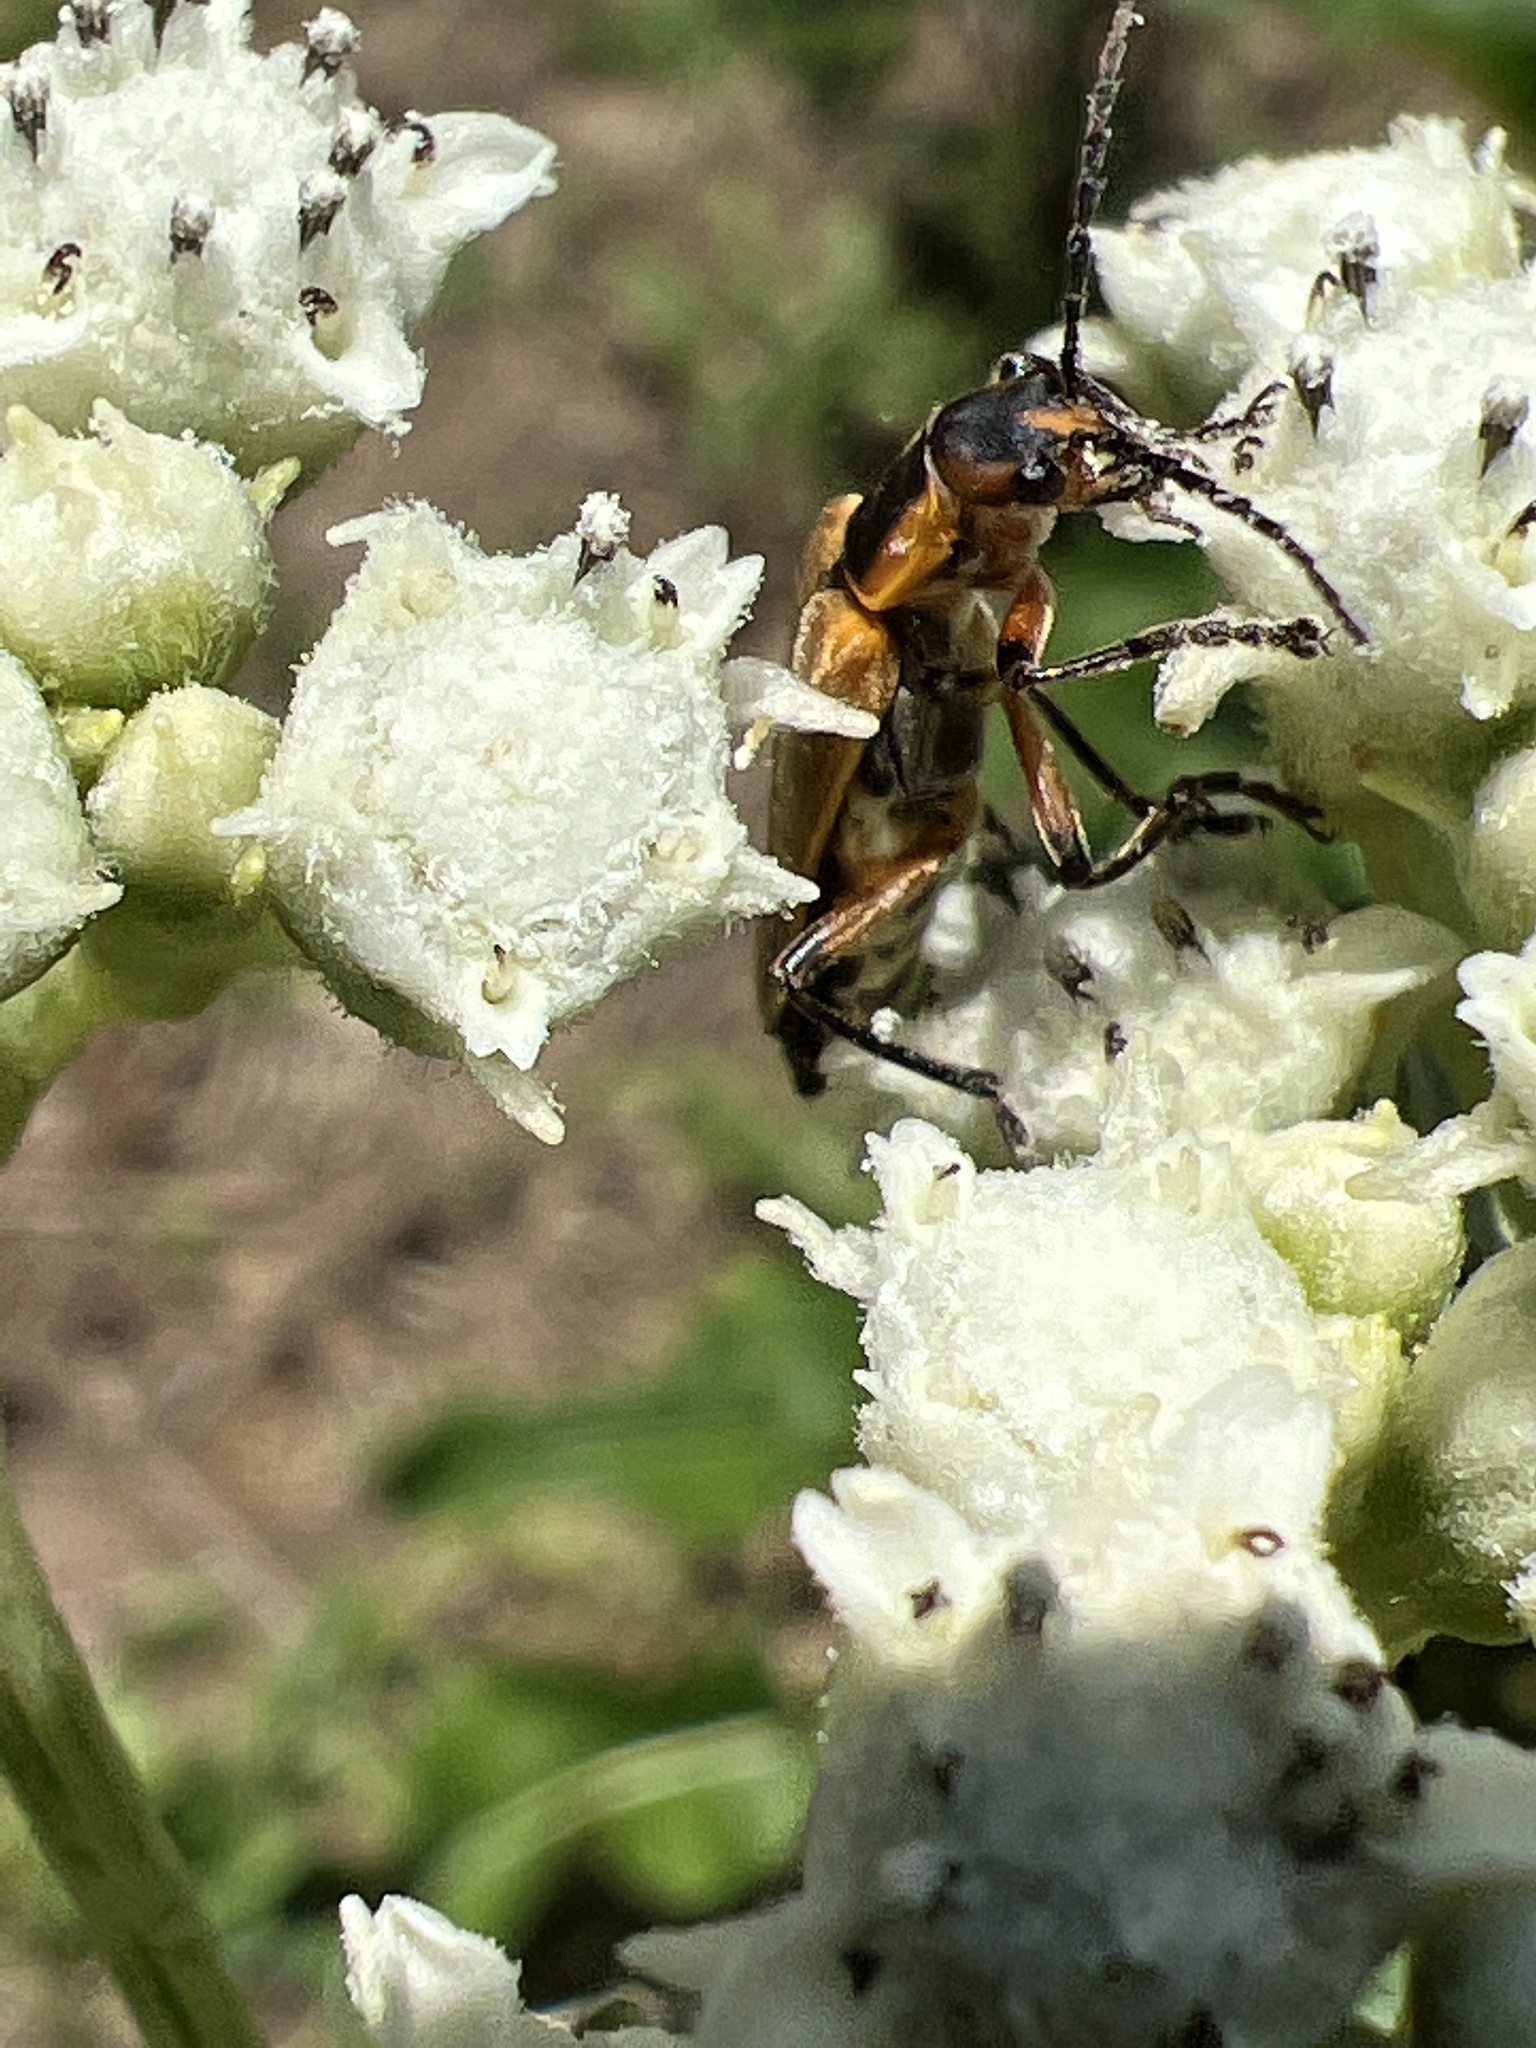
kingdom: Animalia
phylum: Arthropoda
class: Insecta
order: Coleoptera
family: Cantharidae
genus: Chauliognathus
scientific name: Chauliognathus marginatus
